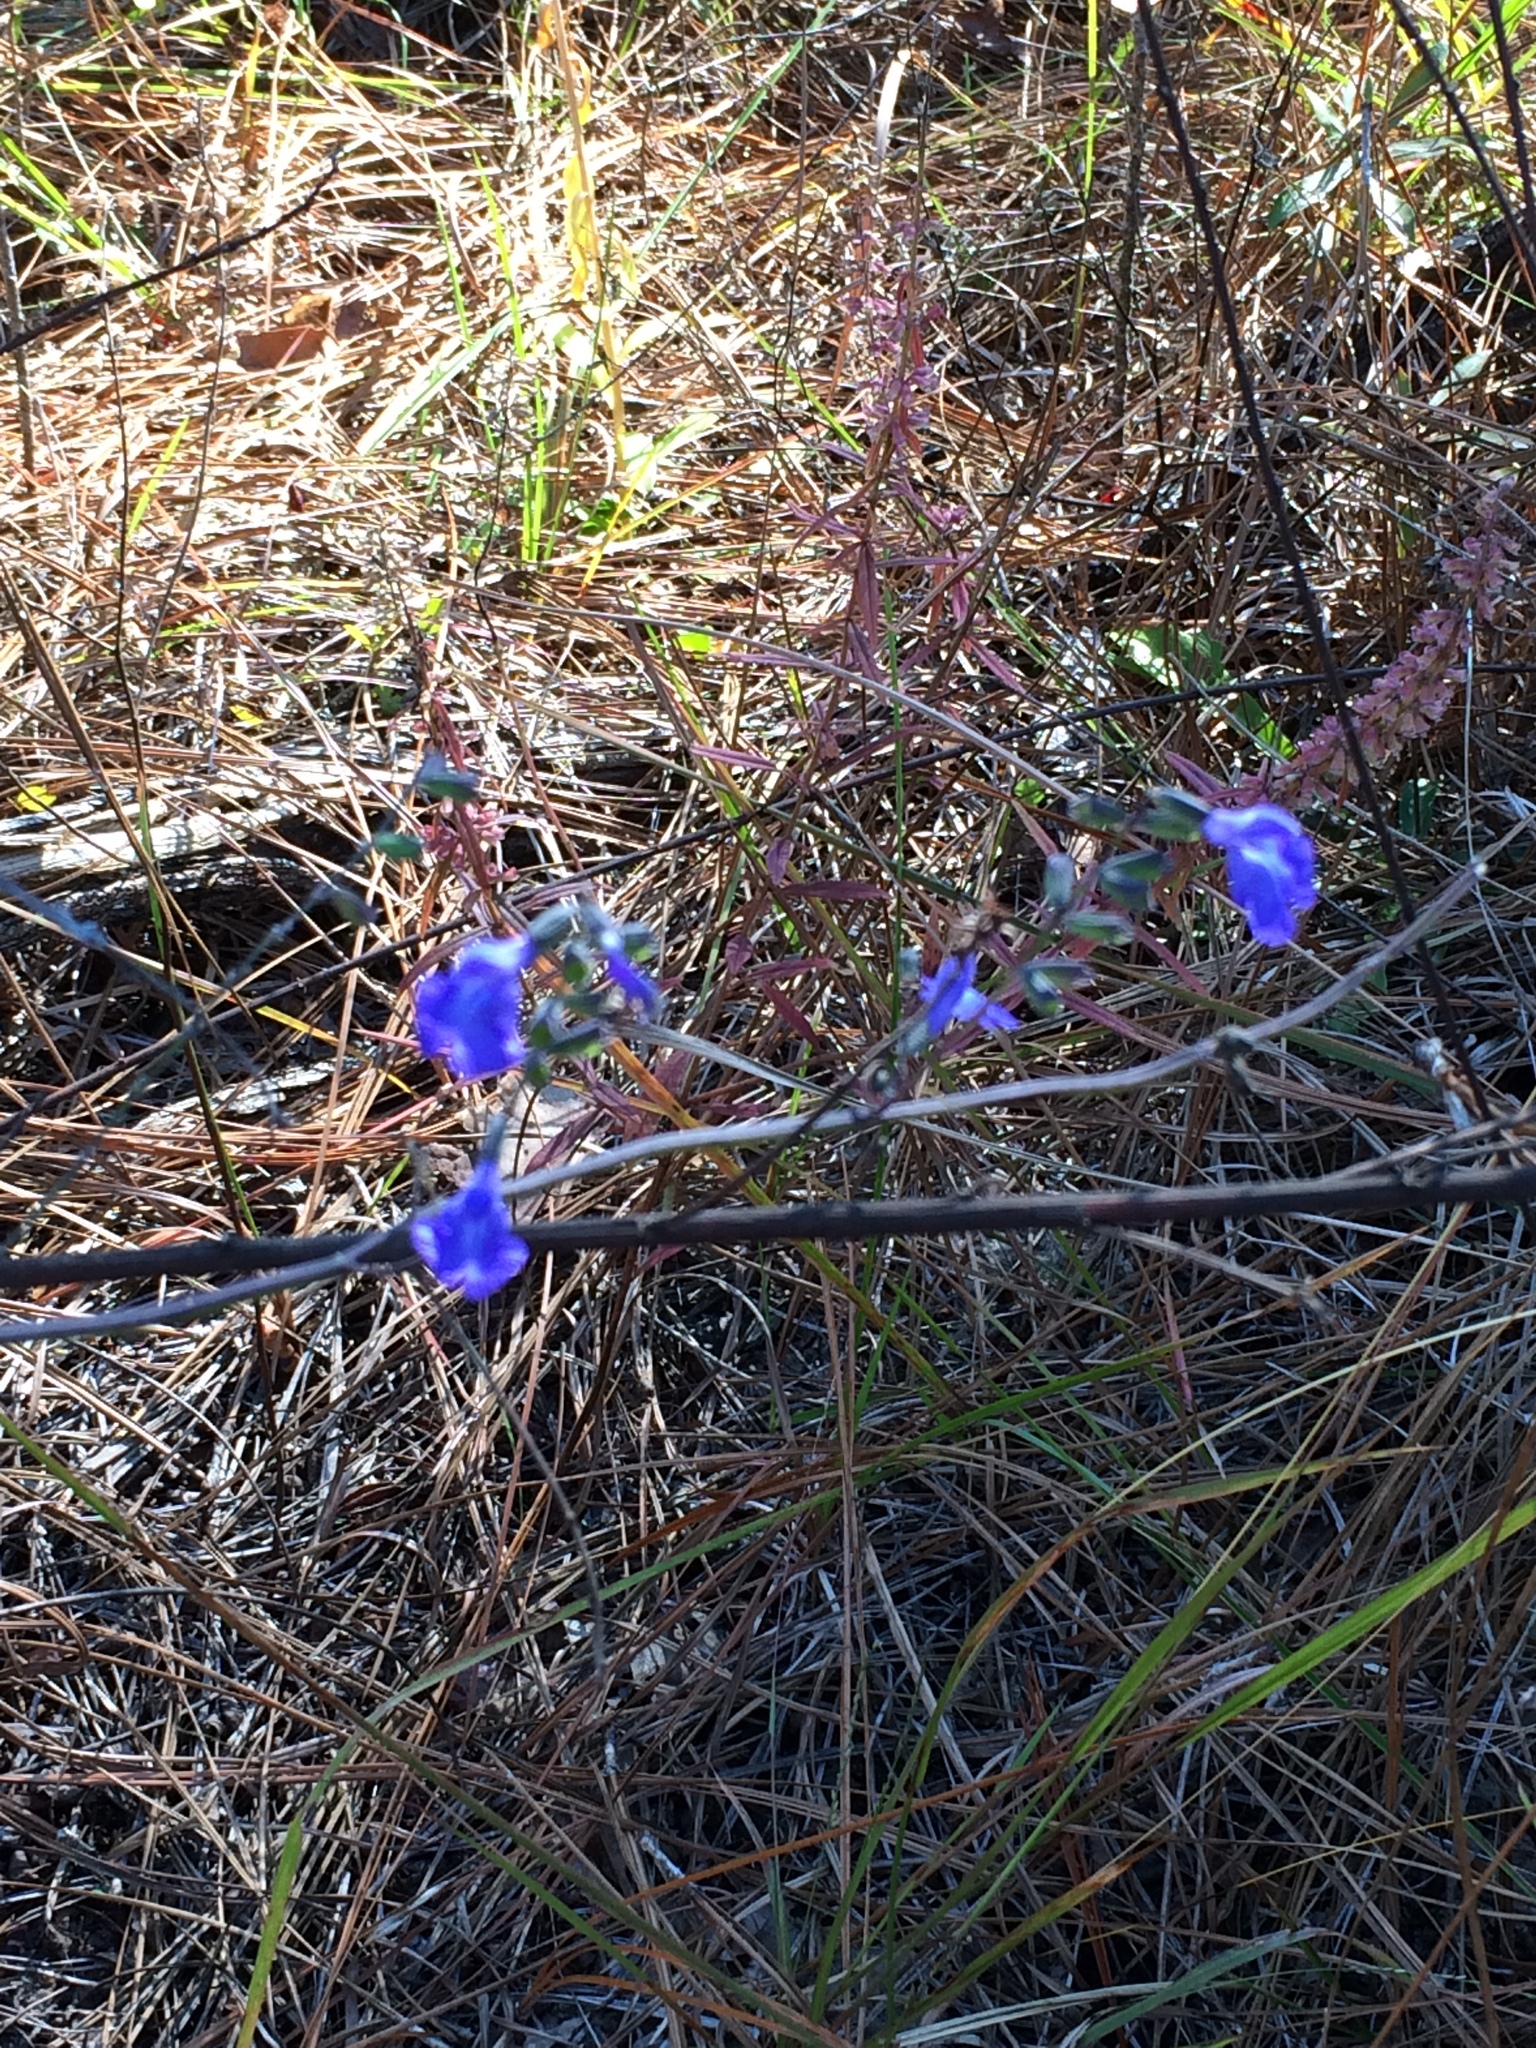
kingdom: Plantae
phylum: Tracheophyta
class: Magnoliopsida
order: Lamiales
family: Lamiaceae
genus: Salvia
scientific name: Salvia azurea
